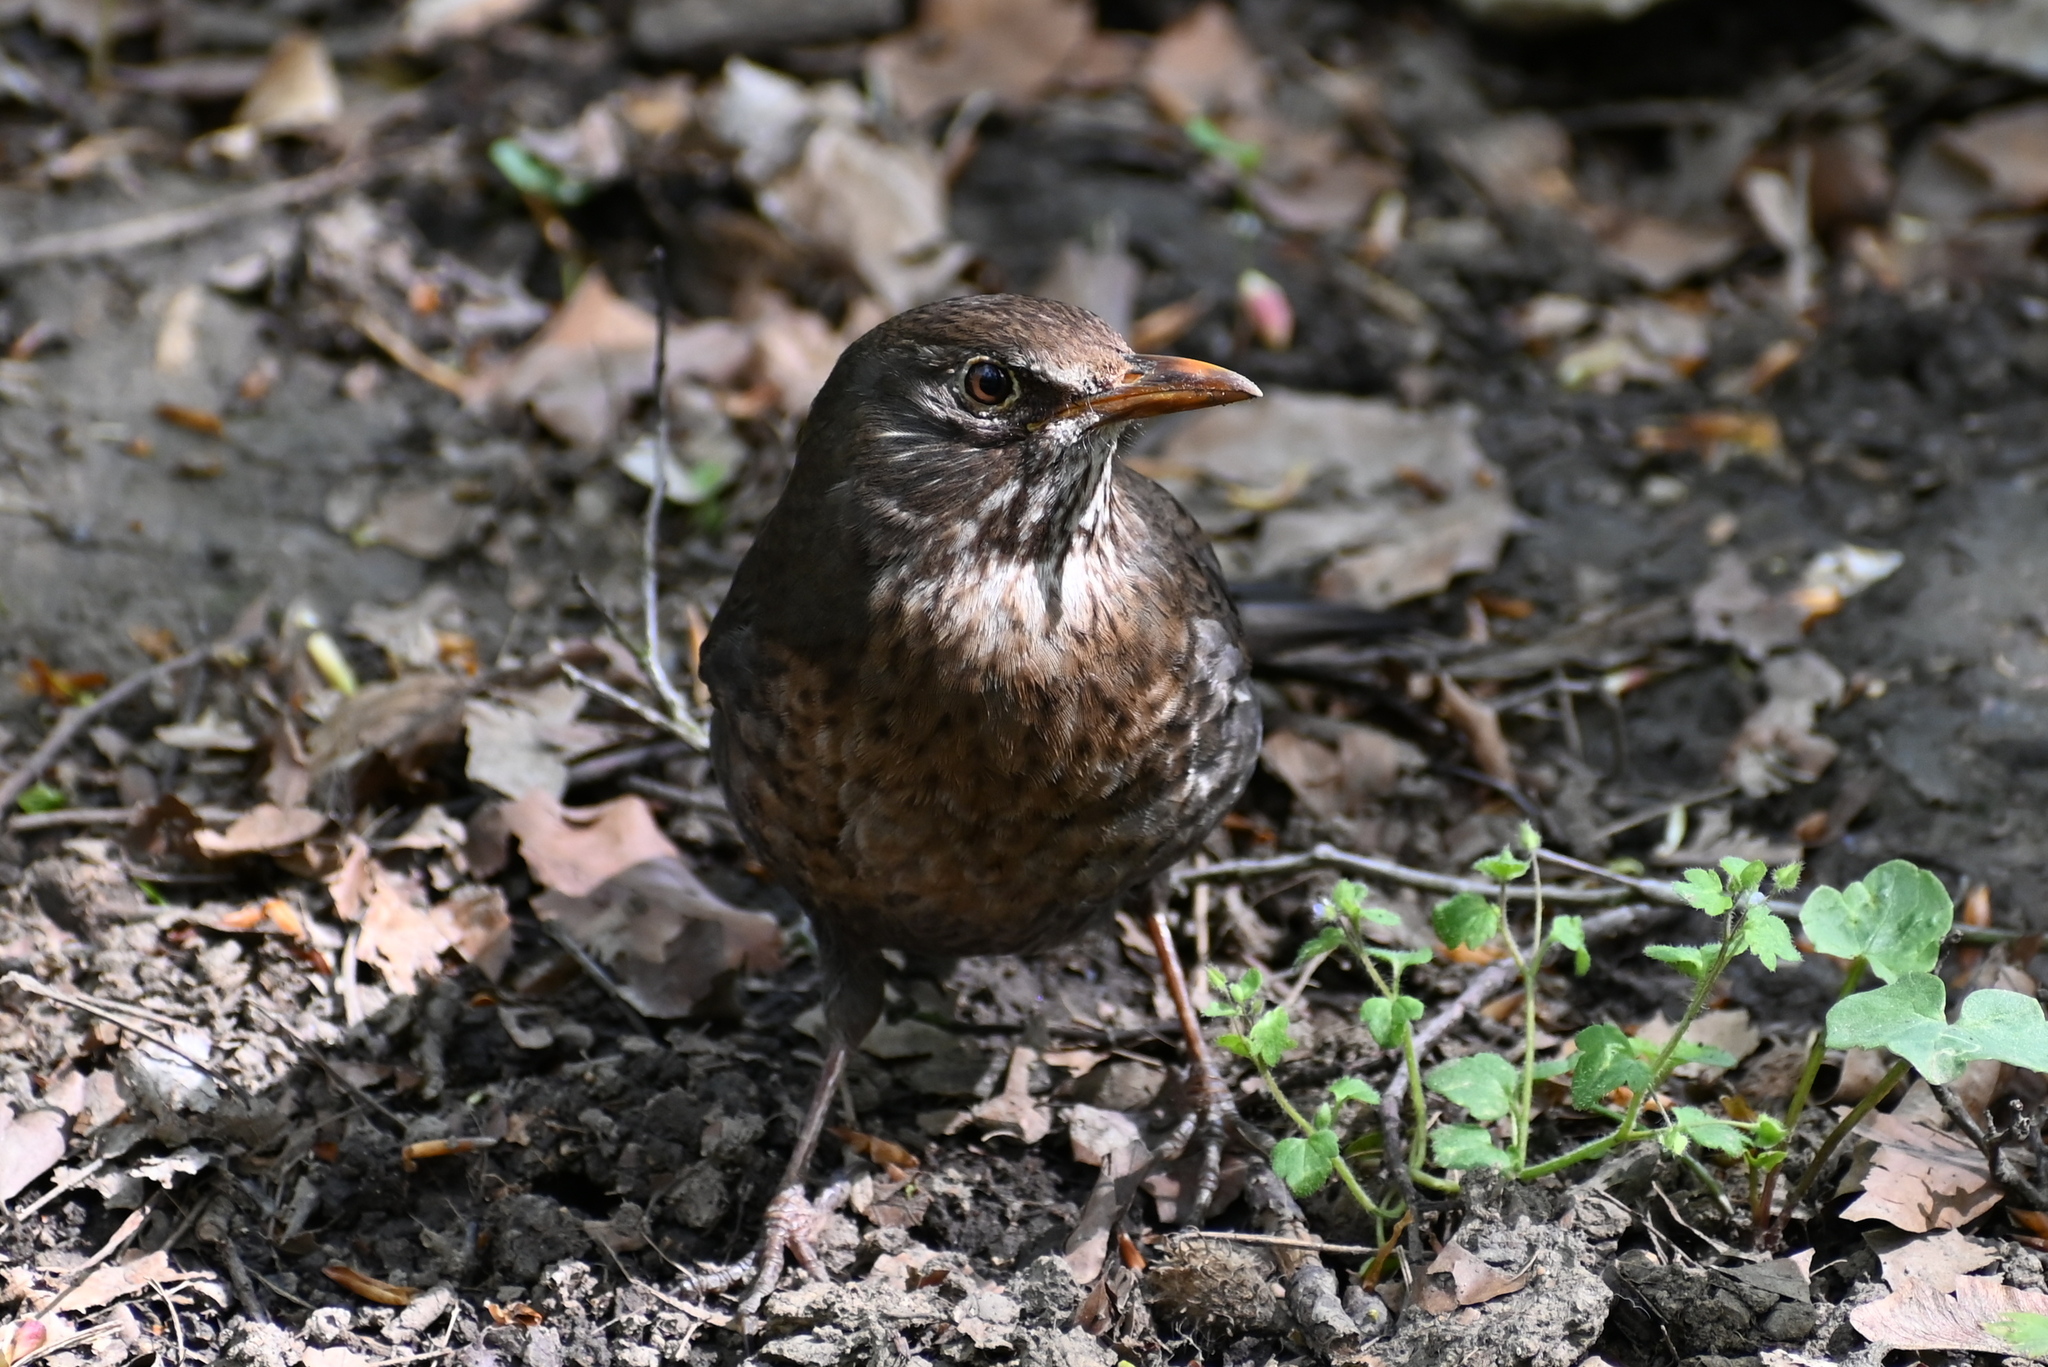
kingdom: Animalia
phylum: Chordata
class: Aves
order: Passeriformes
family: Turdidae
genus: Turdus
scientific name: Turdus merula
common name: Common blackbird
